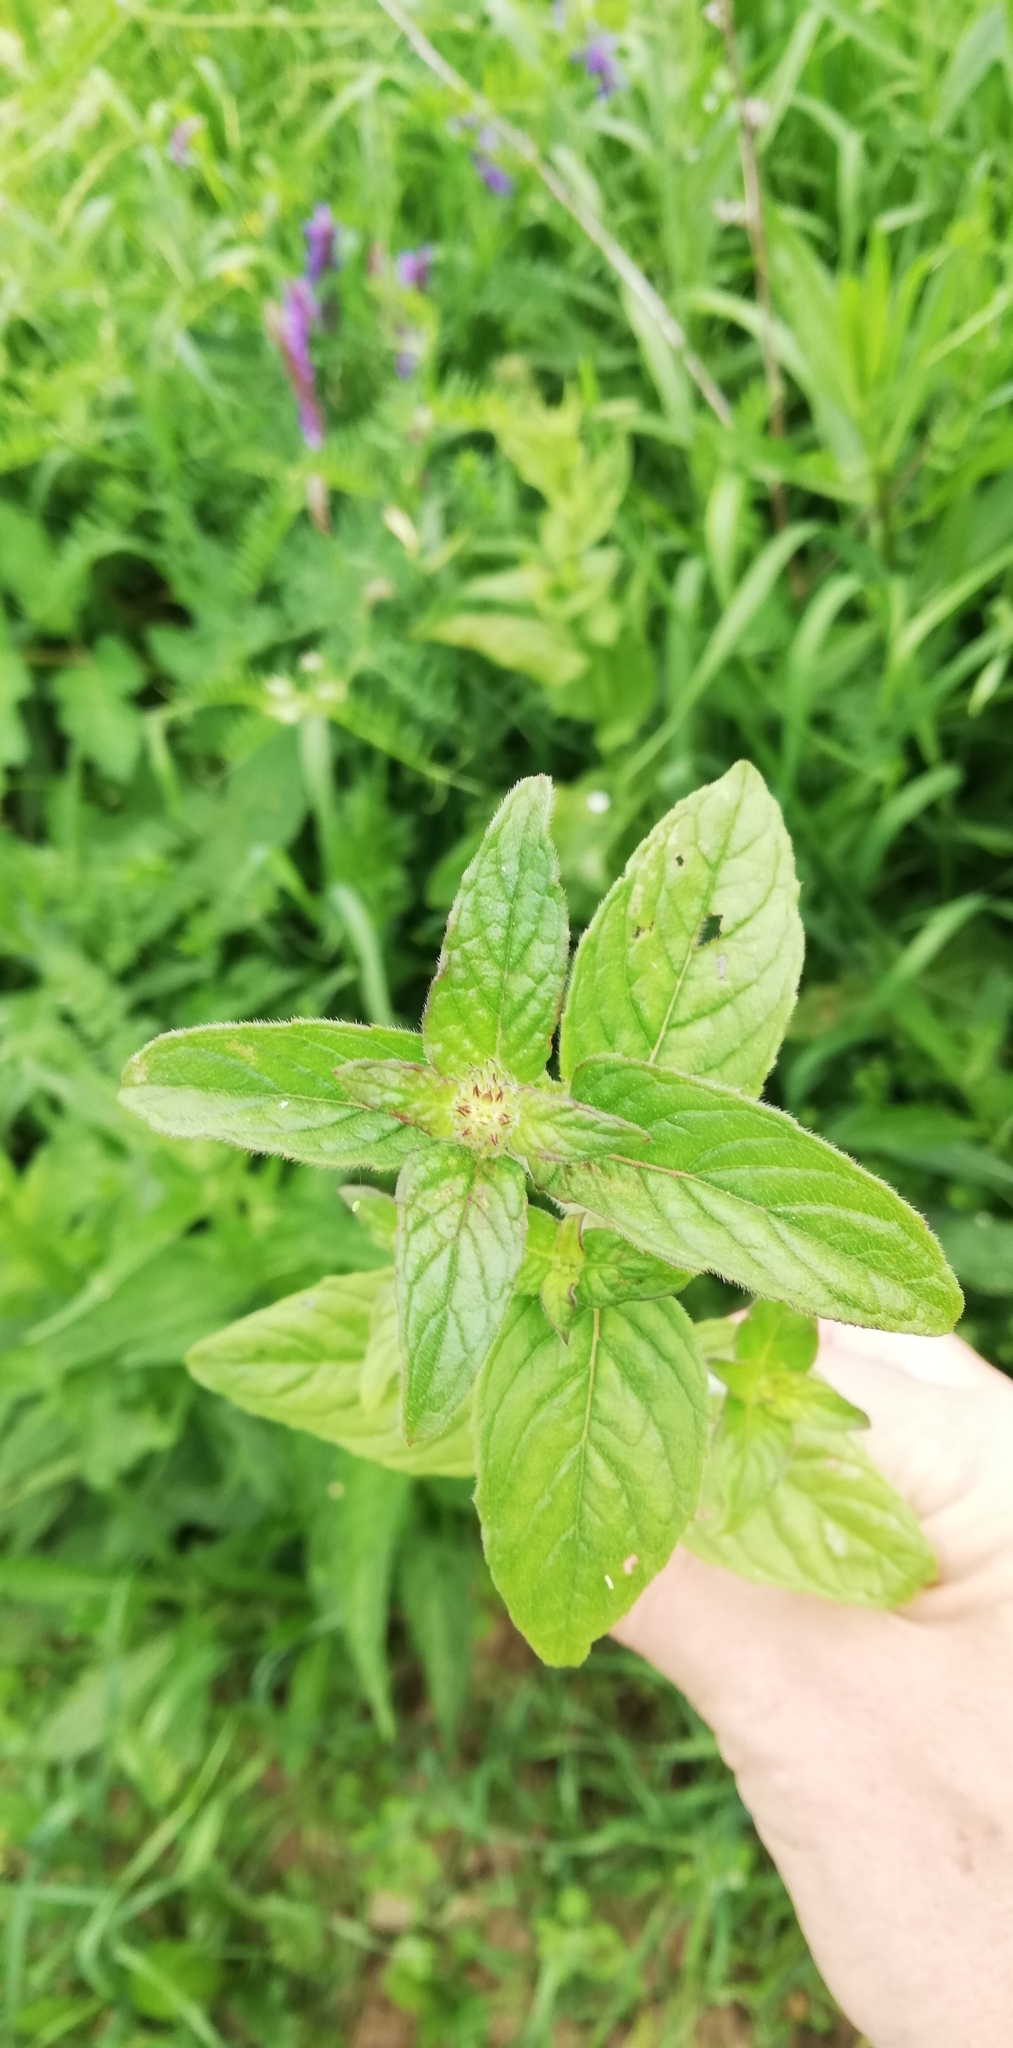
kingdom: Plantae
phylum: Tracheophyta
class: Magnoliopsida
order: Lamiales
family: Lamiaceae
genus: Clinopodium
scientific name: Clinopodium vulgare
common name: Wild basil
